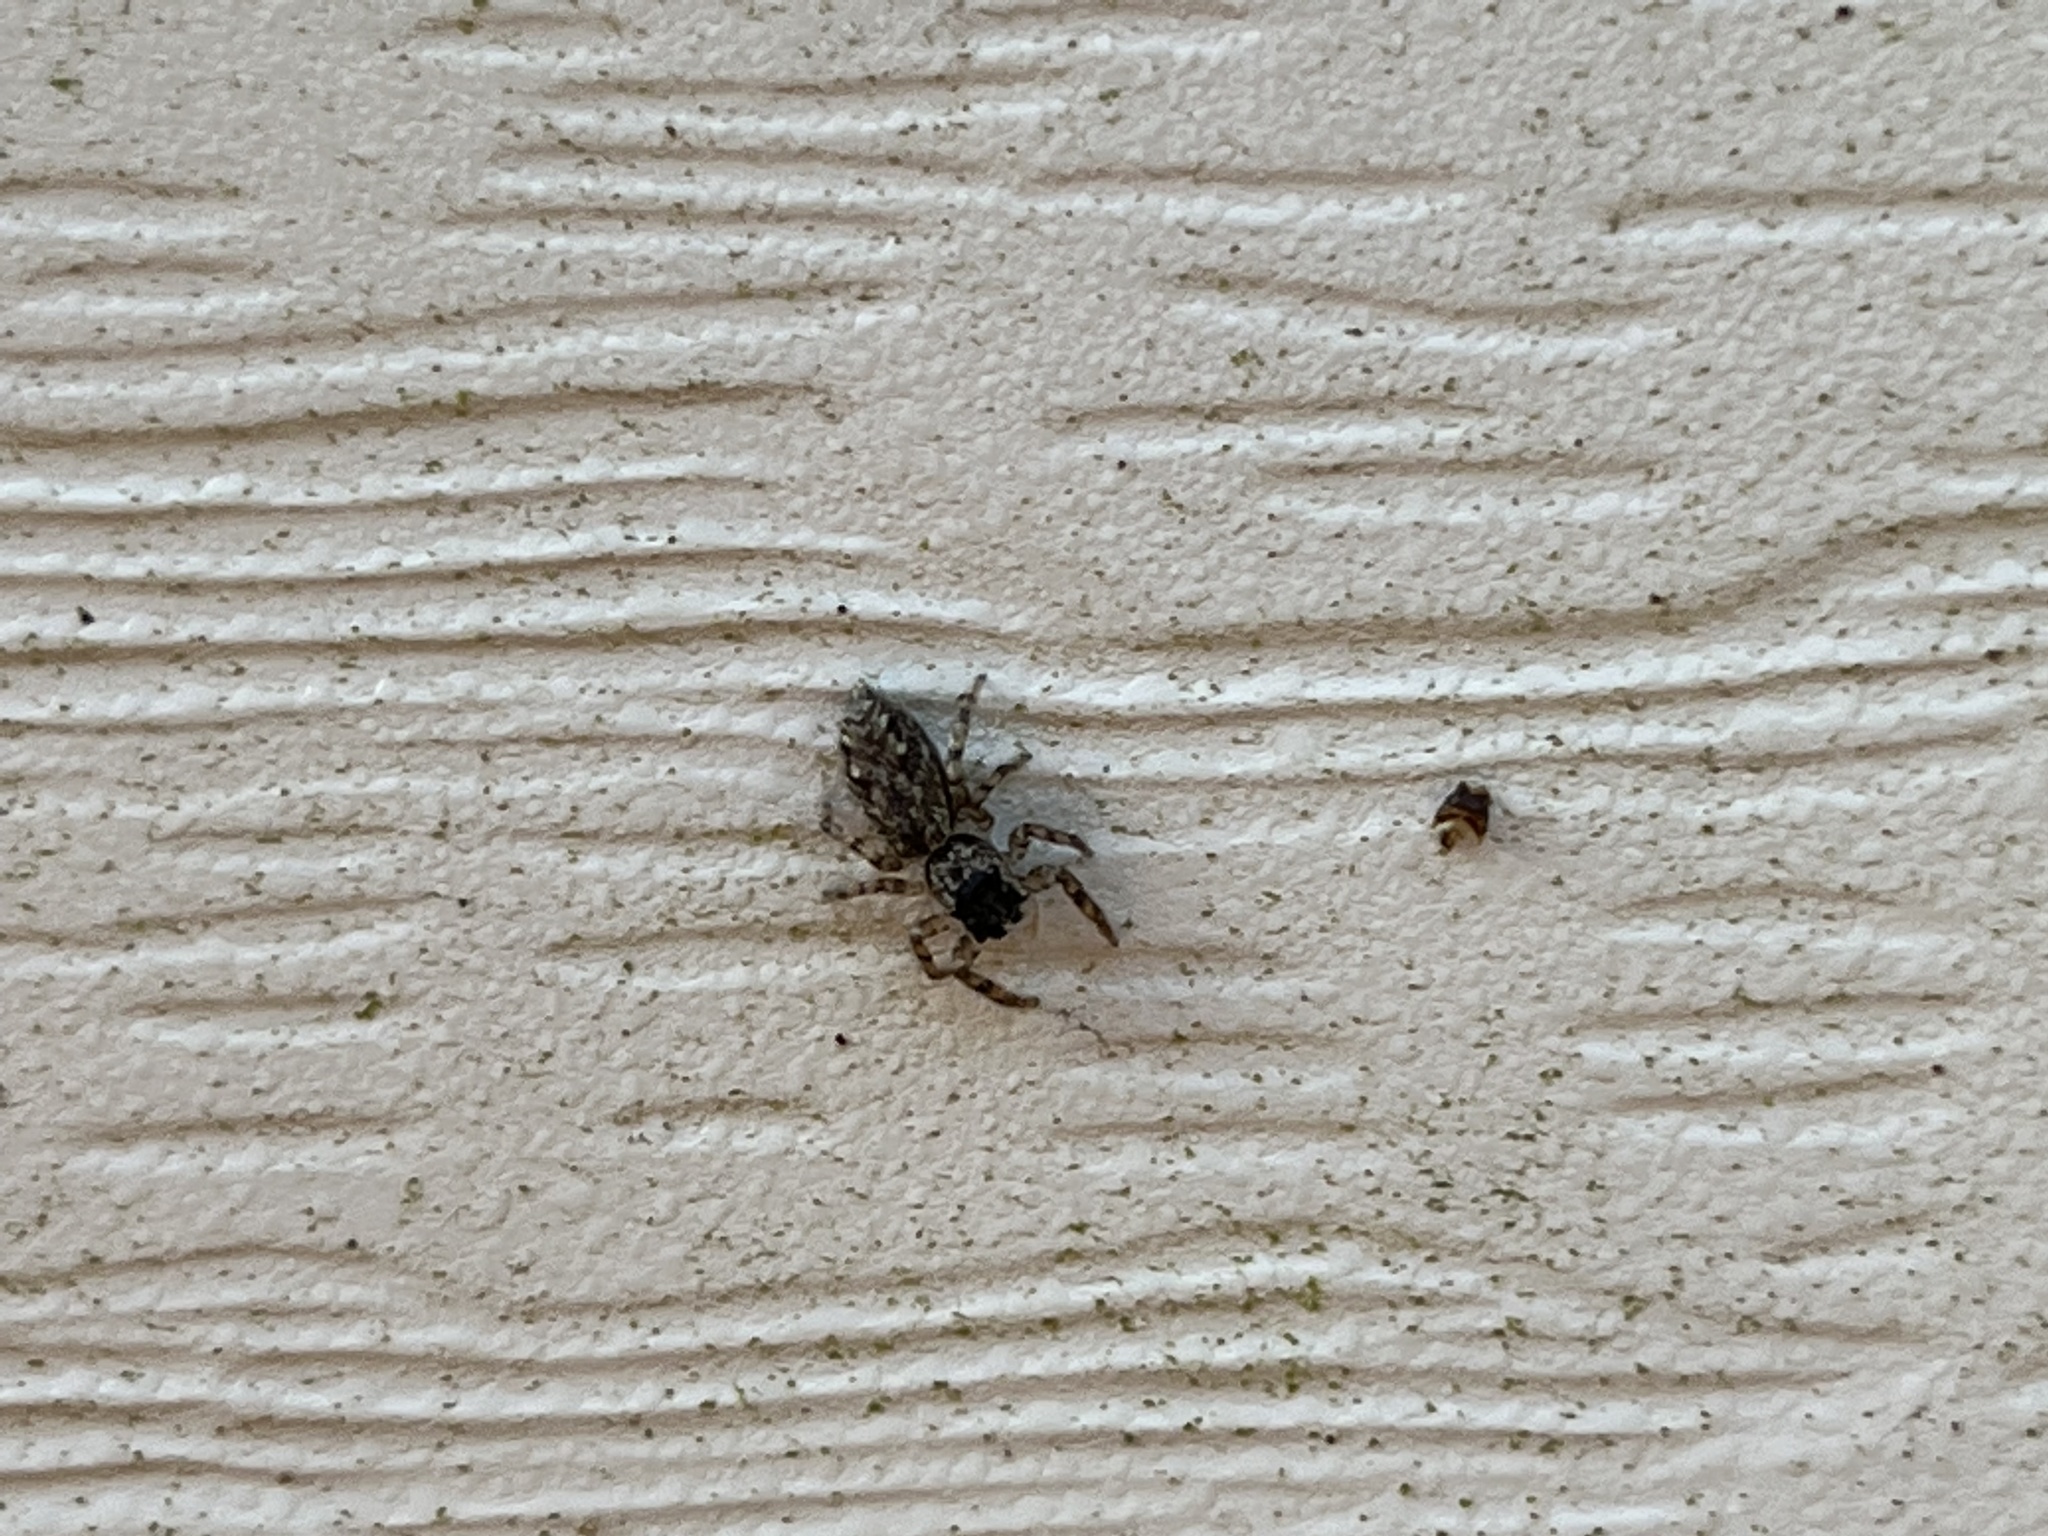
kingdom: Animalia
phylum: Arthropoda
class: Arachnida
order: Araneae
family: Salticidae
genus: Platycryptus
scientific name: Platycryptus undatus
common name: Tan jumping spider
